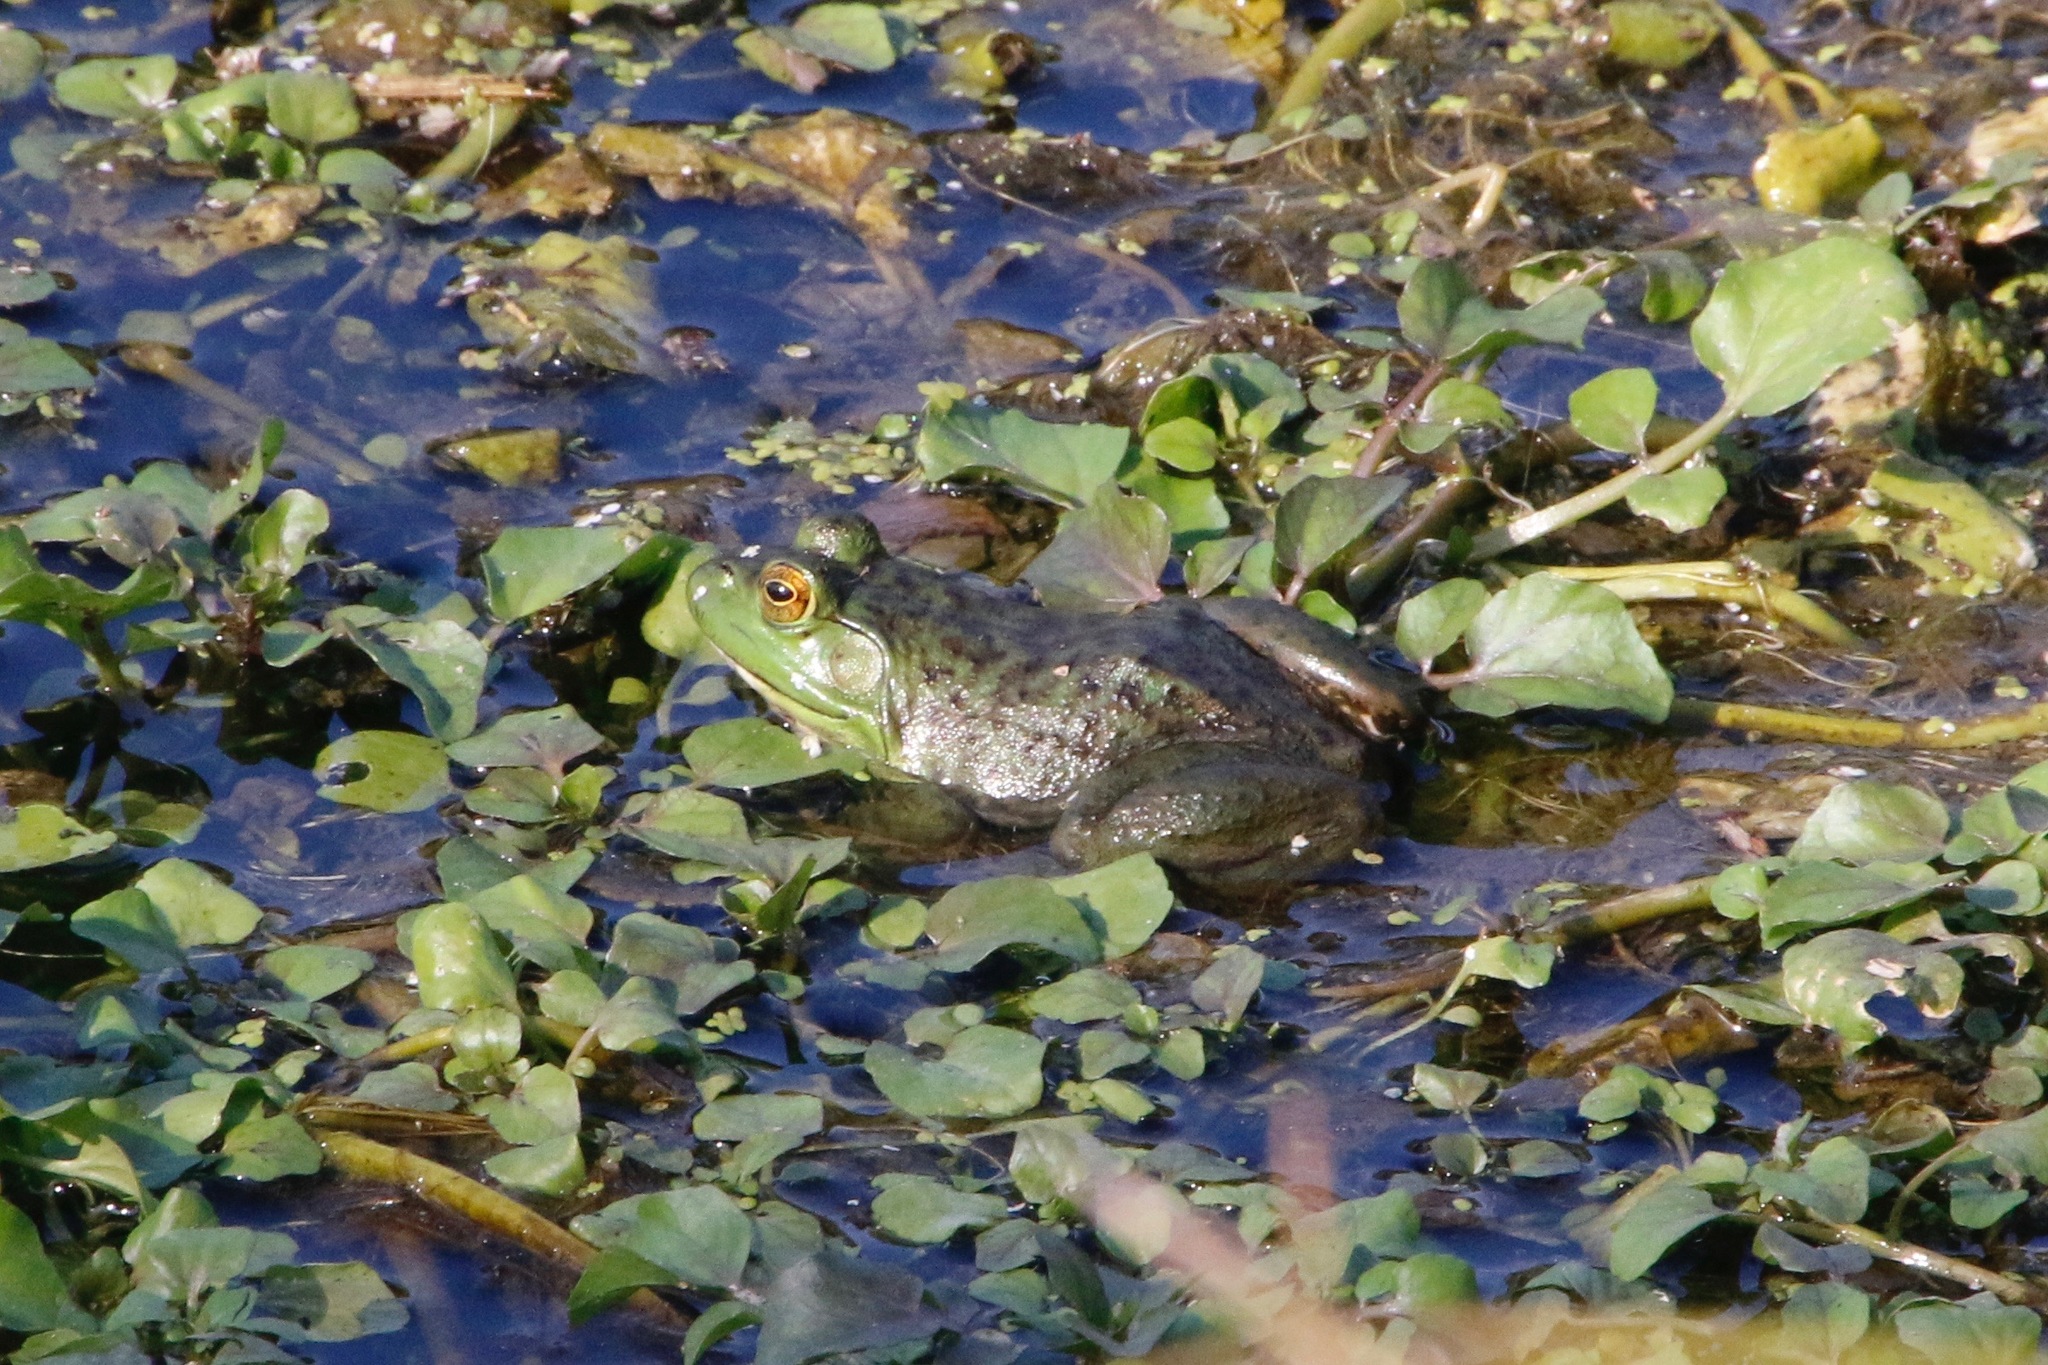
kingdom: Animalia
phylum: Chordata
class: Amphibia
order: Anura
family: Ranidae
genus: Lithobates
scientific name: Lithobates catesbeianus
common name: American bullfrog
